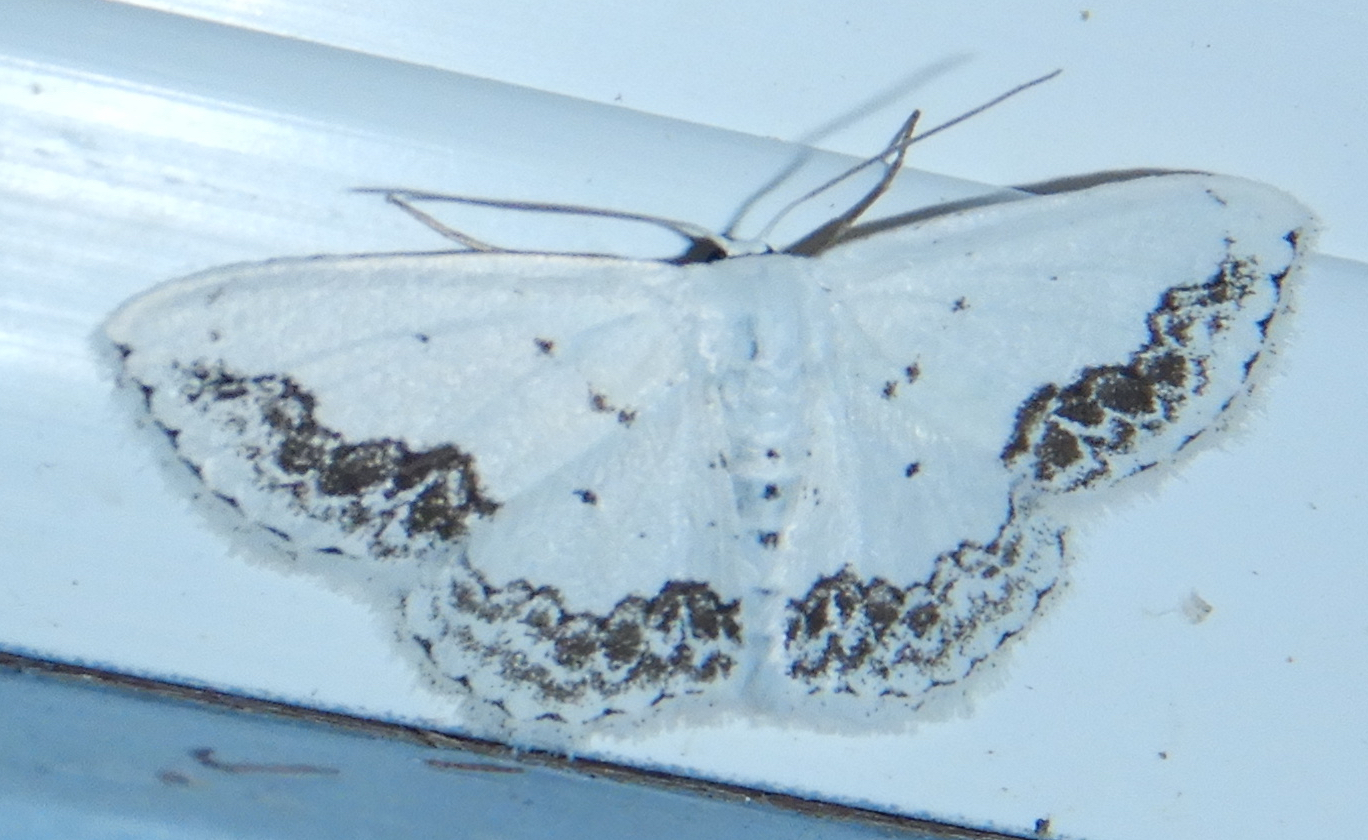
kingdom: Animalia
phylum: Arthropoda
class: Insecta
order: Lepidoptera
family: Geometridae
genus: Scopula
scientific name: Scopula purata
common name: Chalky wave moth
